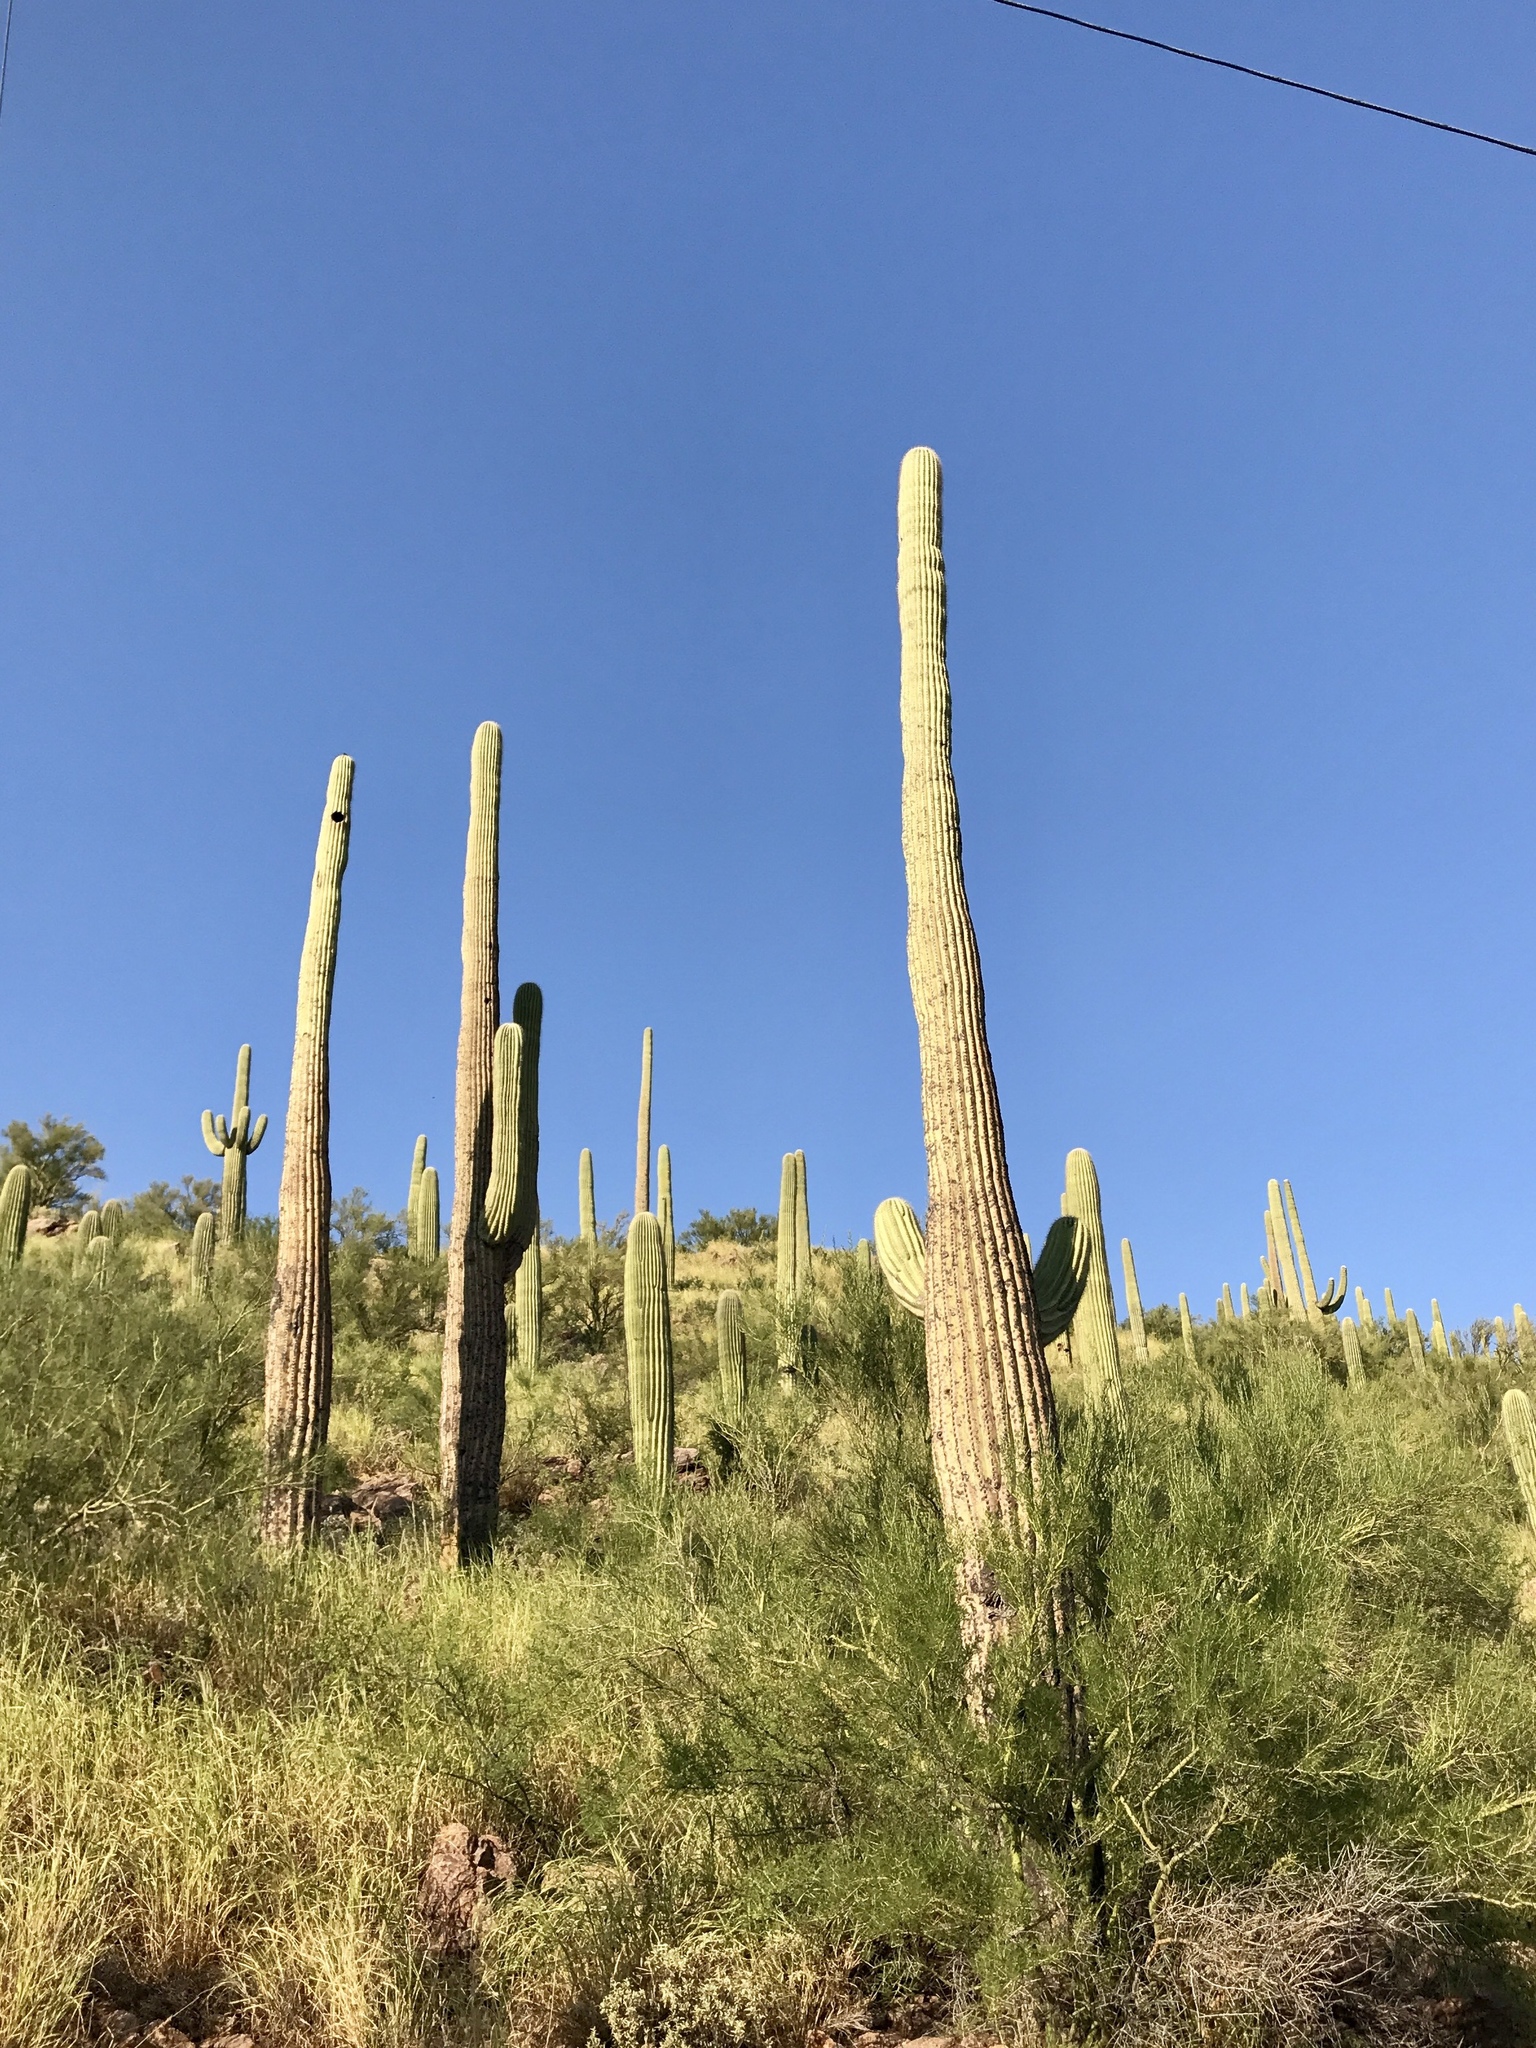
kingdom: Plantae
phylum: Tracheophyta
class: Magnoliopsida
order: Caryophyllales
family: Cactaceae
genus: Carnegiea
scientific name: Carnegiea gigantea
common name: Saguaro
